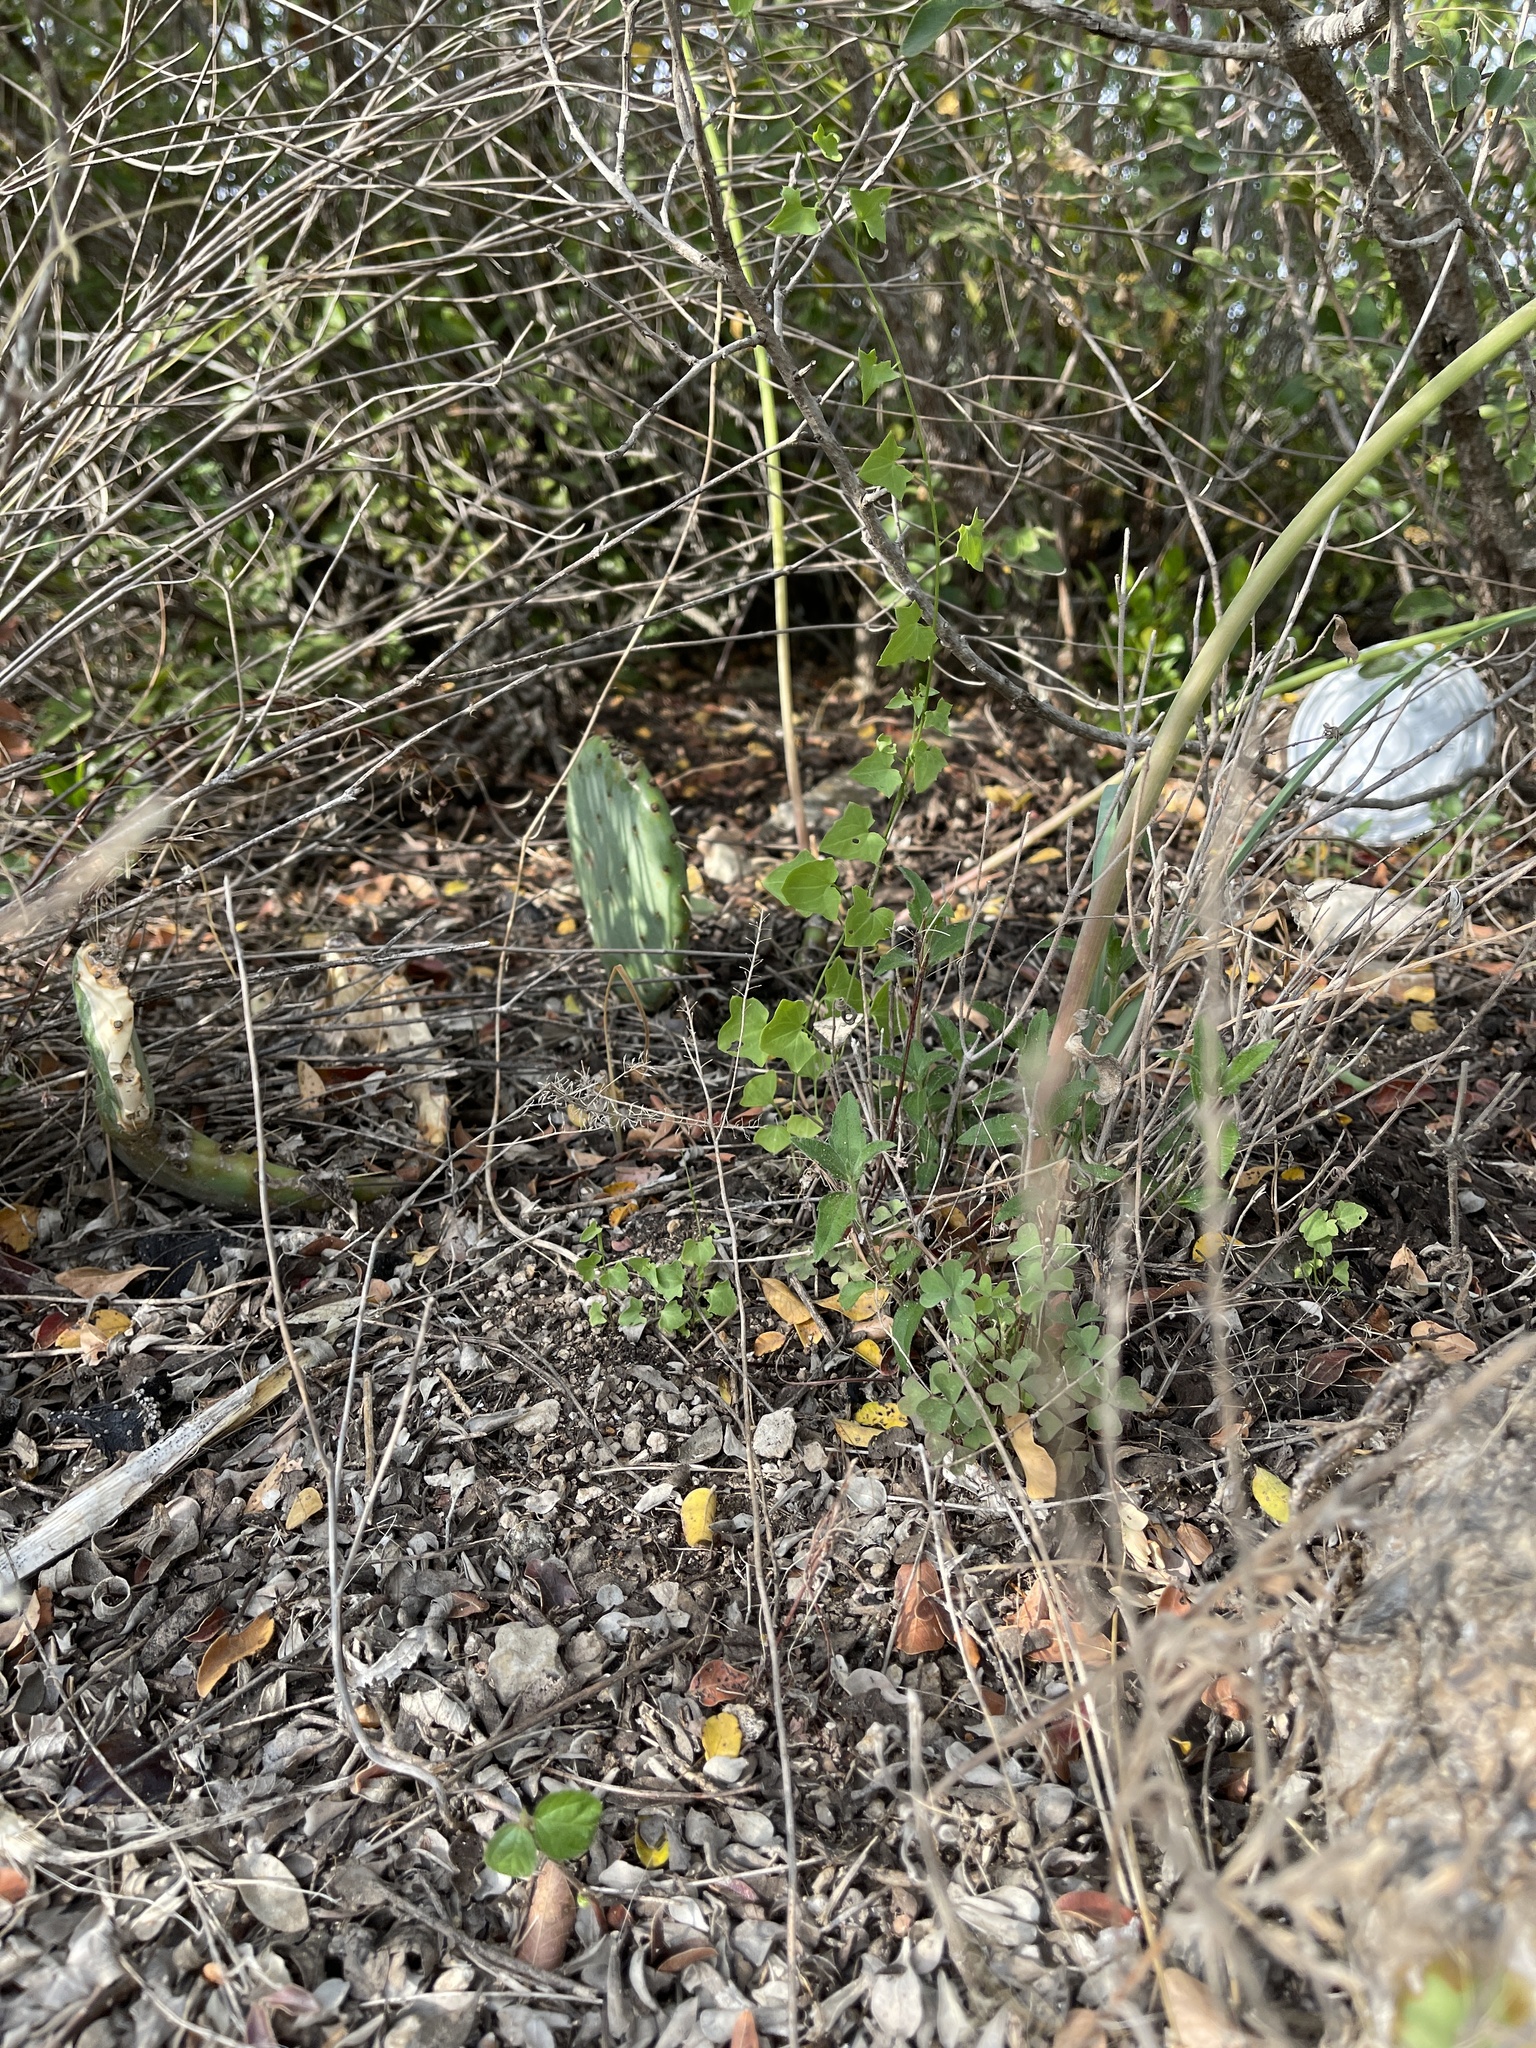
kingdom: Plantae
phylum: Tracheophyta
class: Magnoliopsida
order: Cucurbitales
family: Cucurbitaceae
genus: Ibervillea
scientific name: Ibervillea lindheimeri
